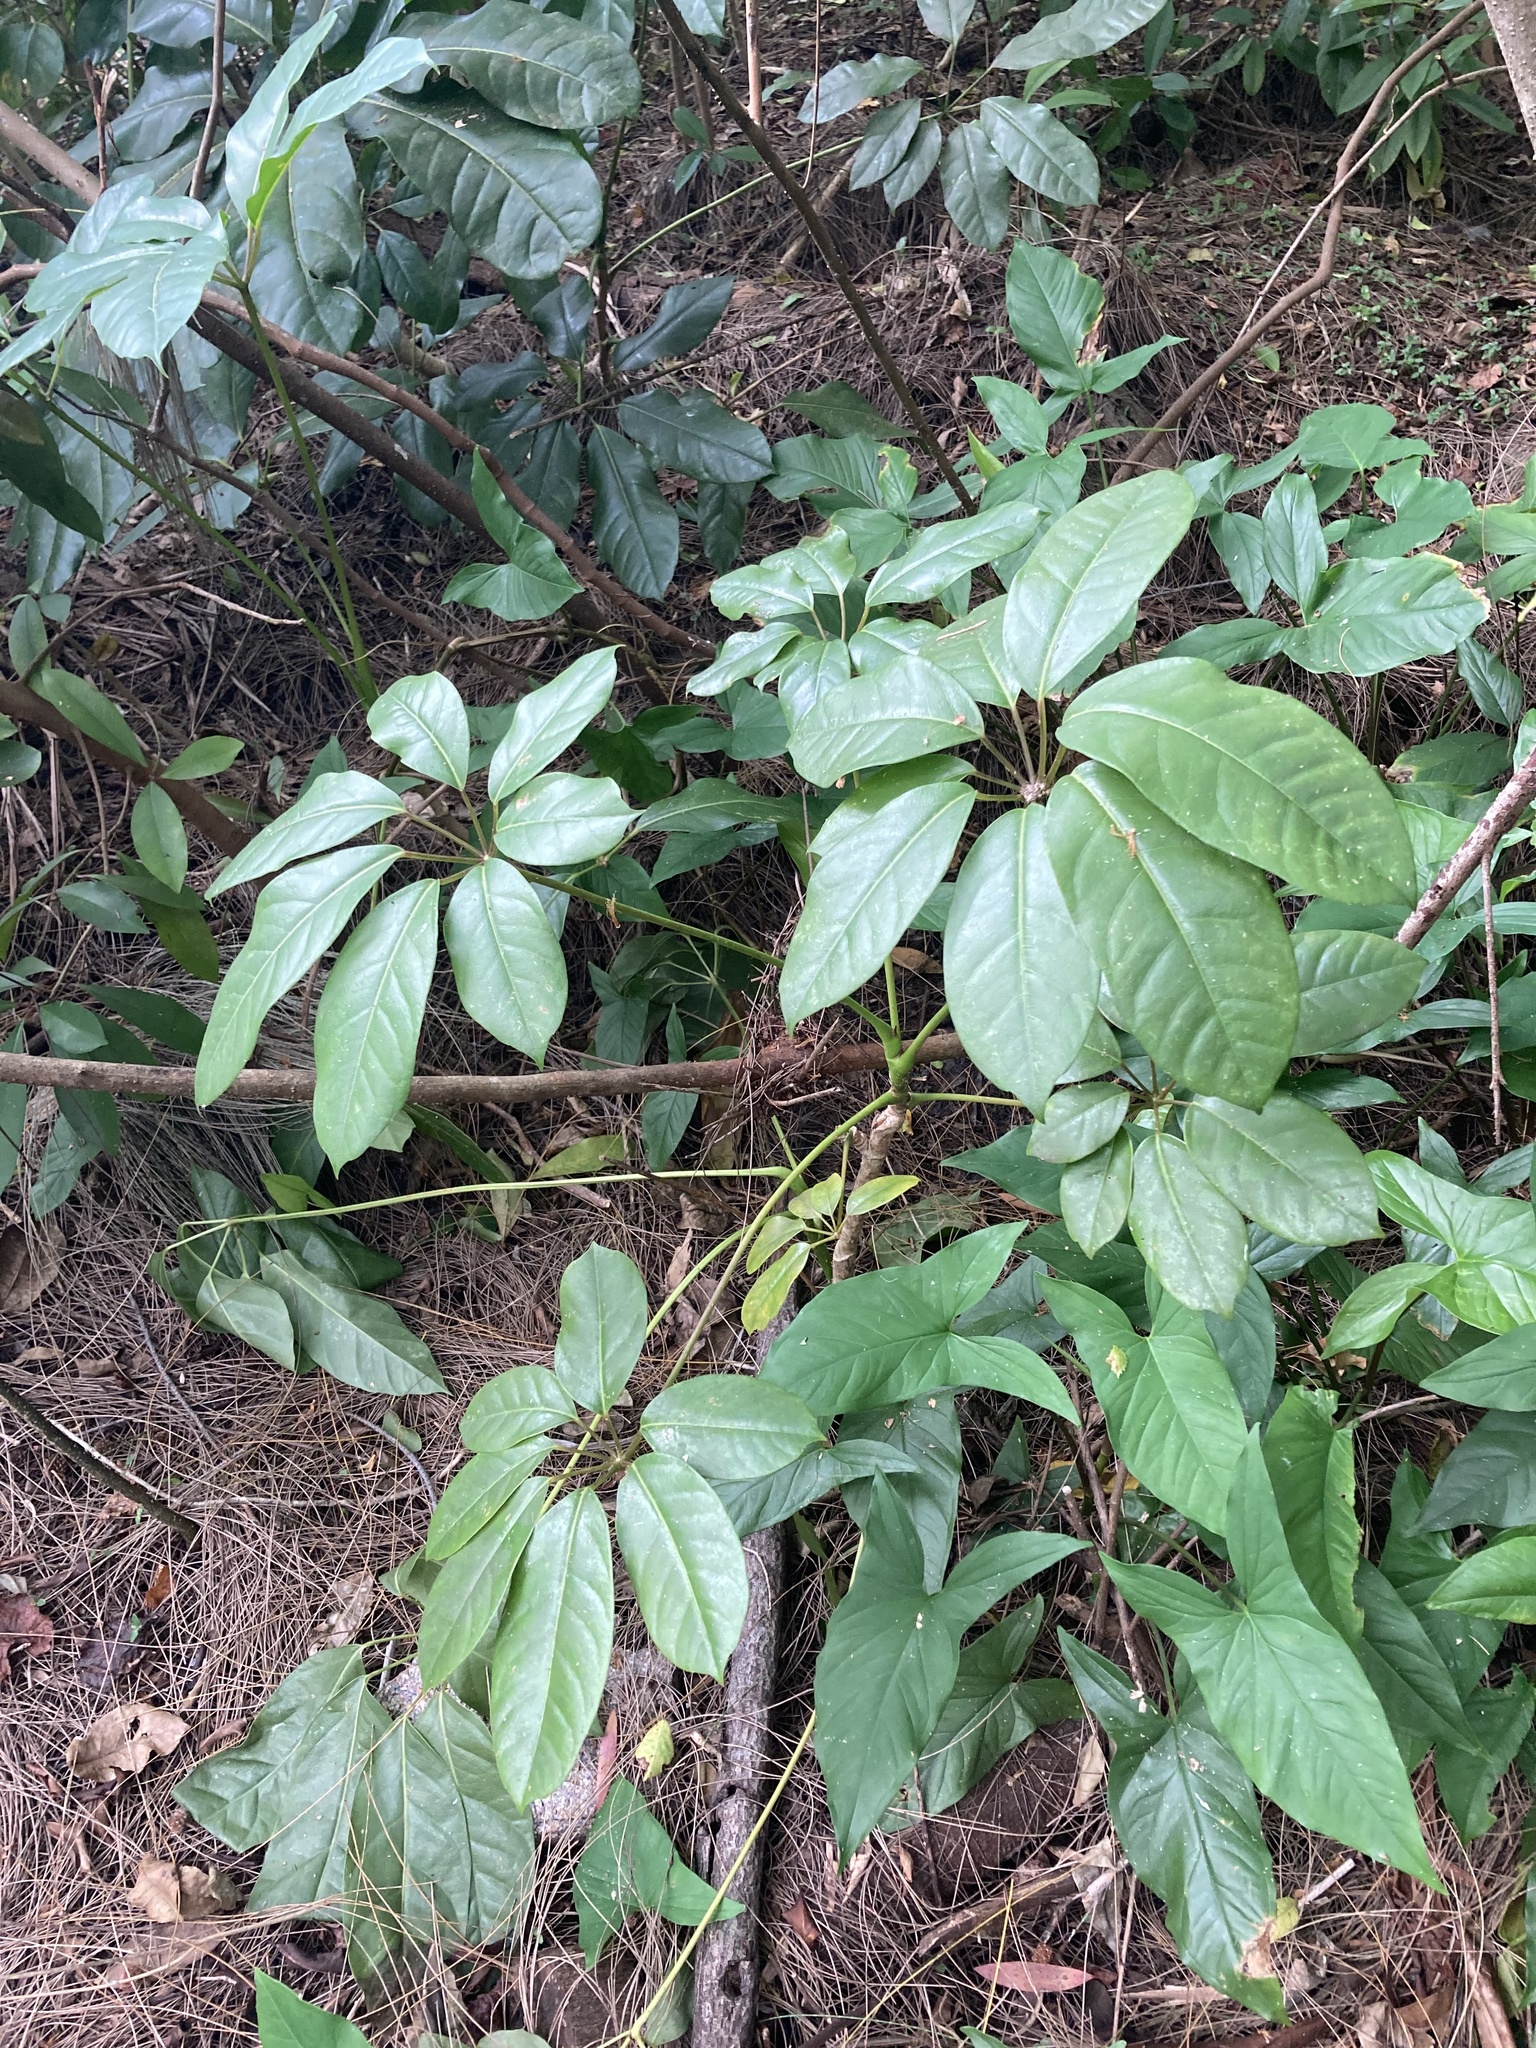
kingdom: Plantae
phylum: Tracheophyta
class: Magnoliopsida
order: Apiales
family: Araliaceae
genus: Heptapleurum
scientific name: Heptapleurum actinophyllum
